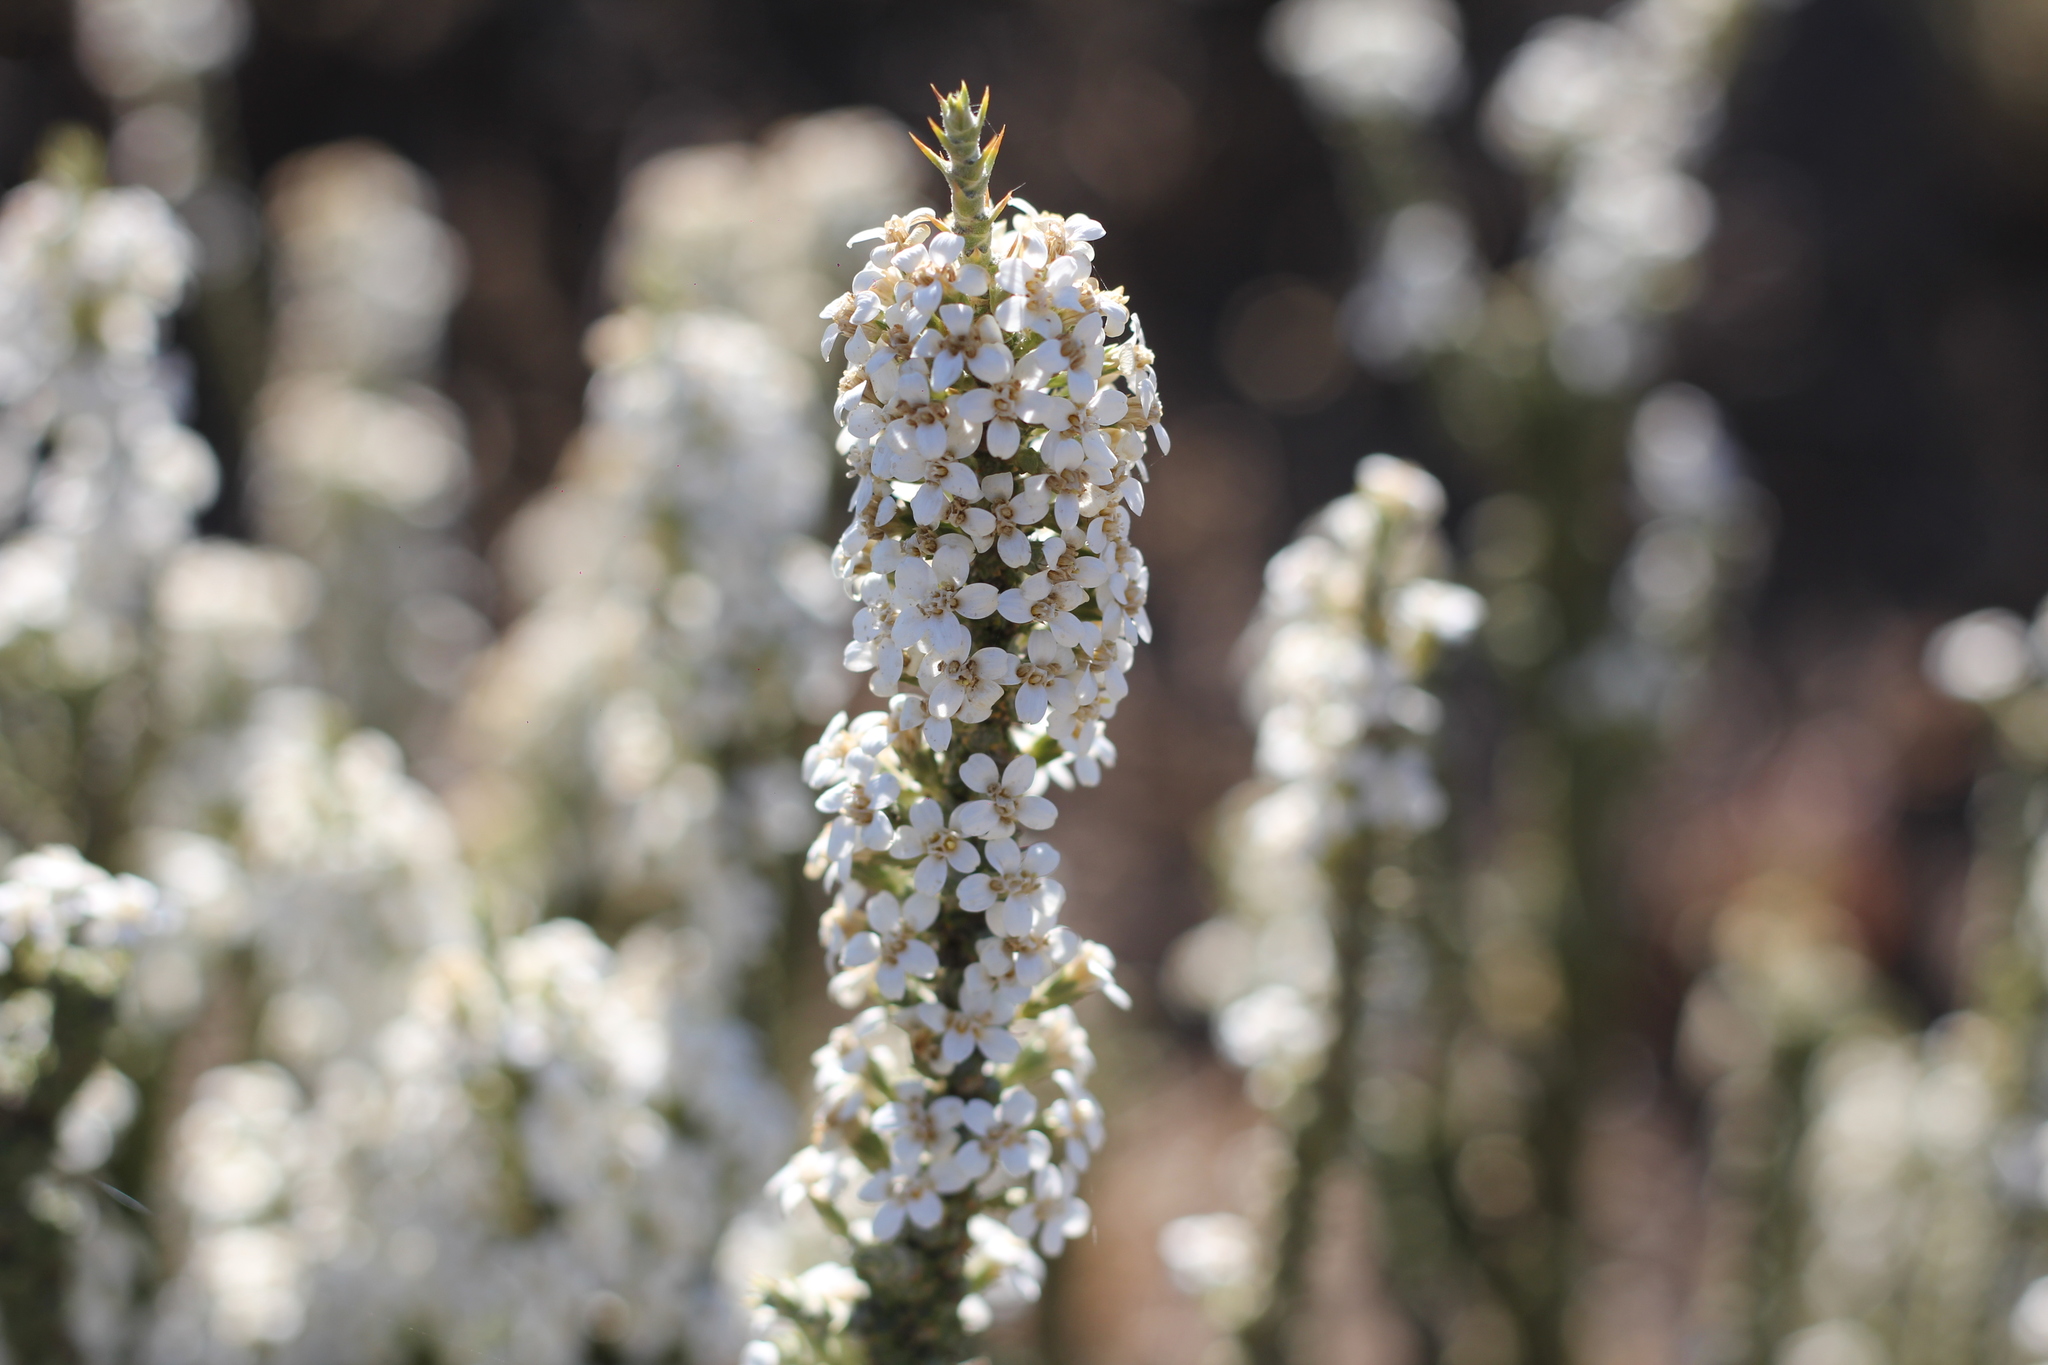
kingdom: Plantae
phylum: Tracheophyta
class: Magnoliopsida
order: Asterales
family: Asteraceae
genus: Nassauvia
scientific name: Nassauvia glomerulosa
